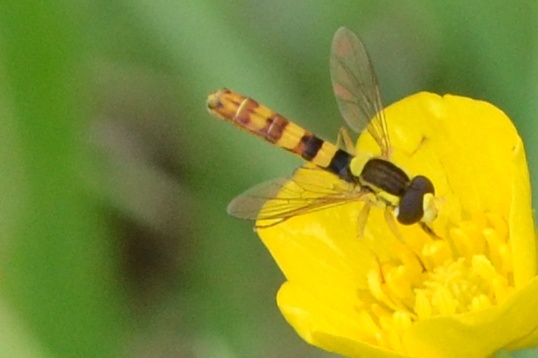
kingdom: Animalia
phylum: Arthropoda
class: Insecta
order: Diptera
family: Syrphidae
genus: Sphaerophoria
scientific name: Sphaerophoria scripta
